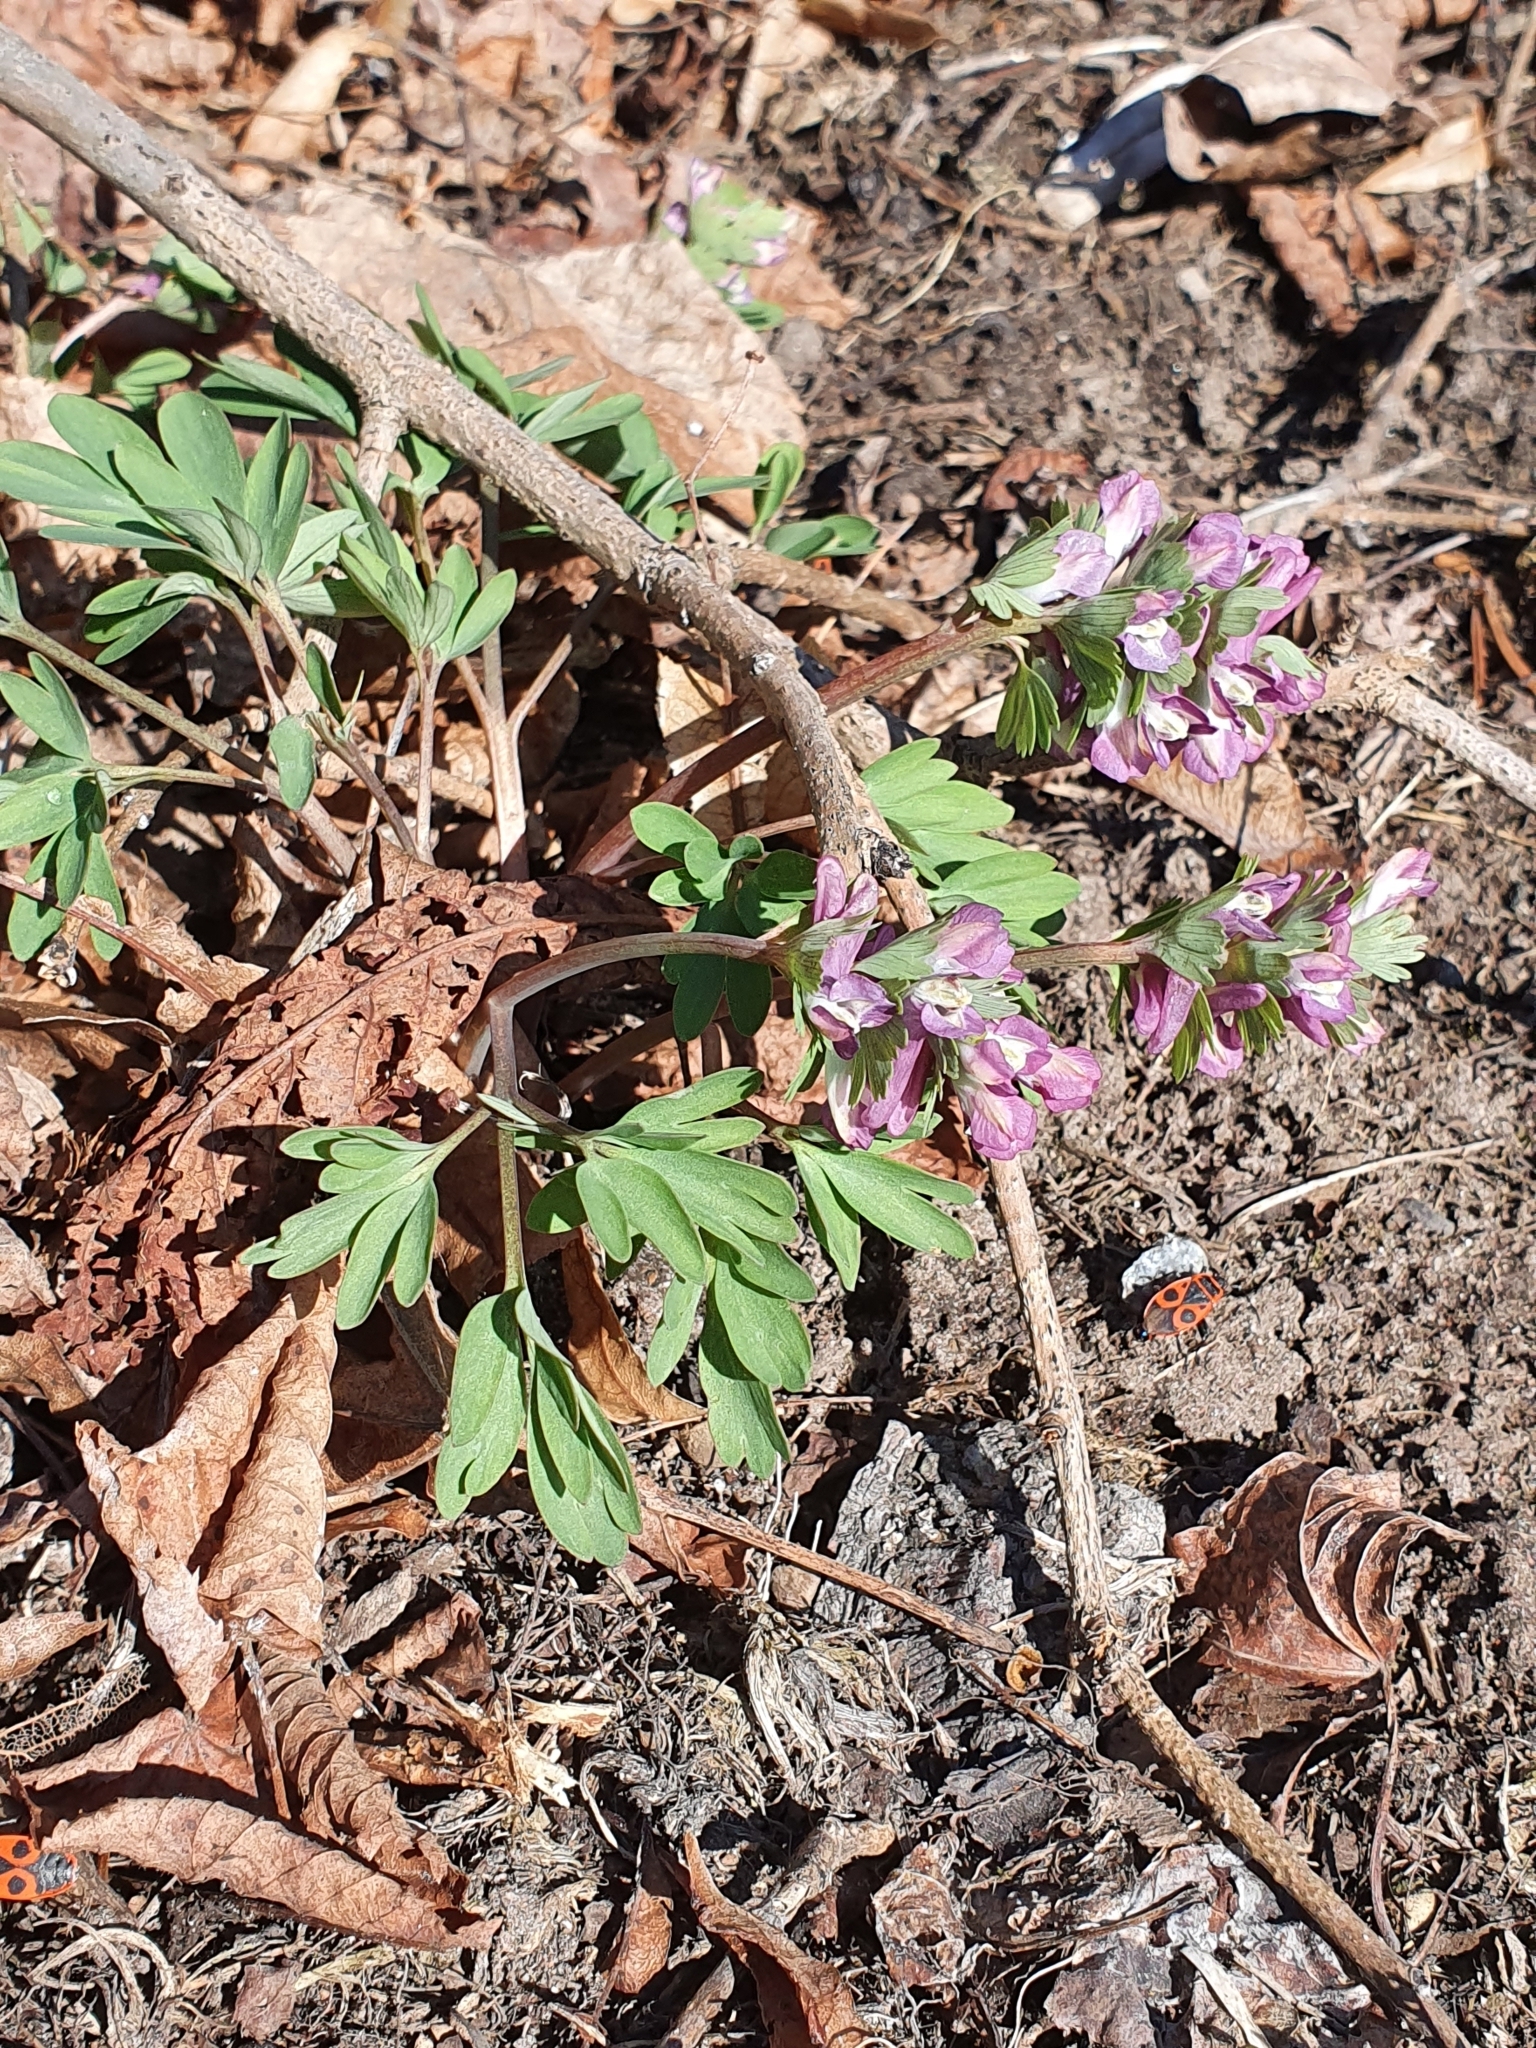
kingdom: Plantae
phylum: Tracheophyta
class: Magnoliopsida
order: Ranunculales
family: Papaveraceae
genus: Corydalis
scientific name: Corydalis solida
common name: Bird-in-a-bush
